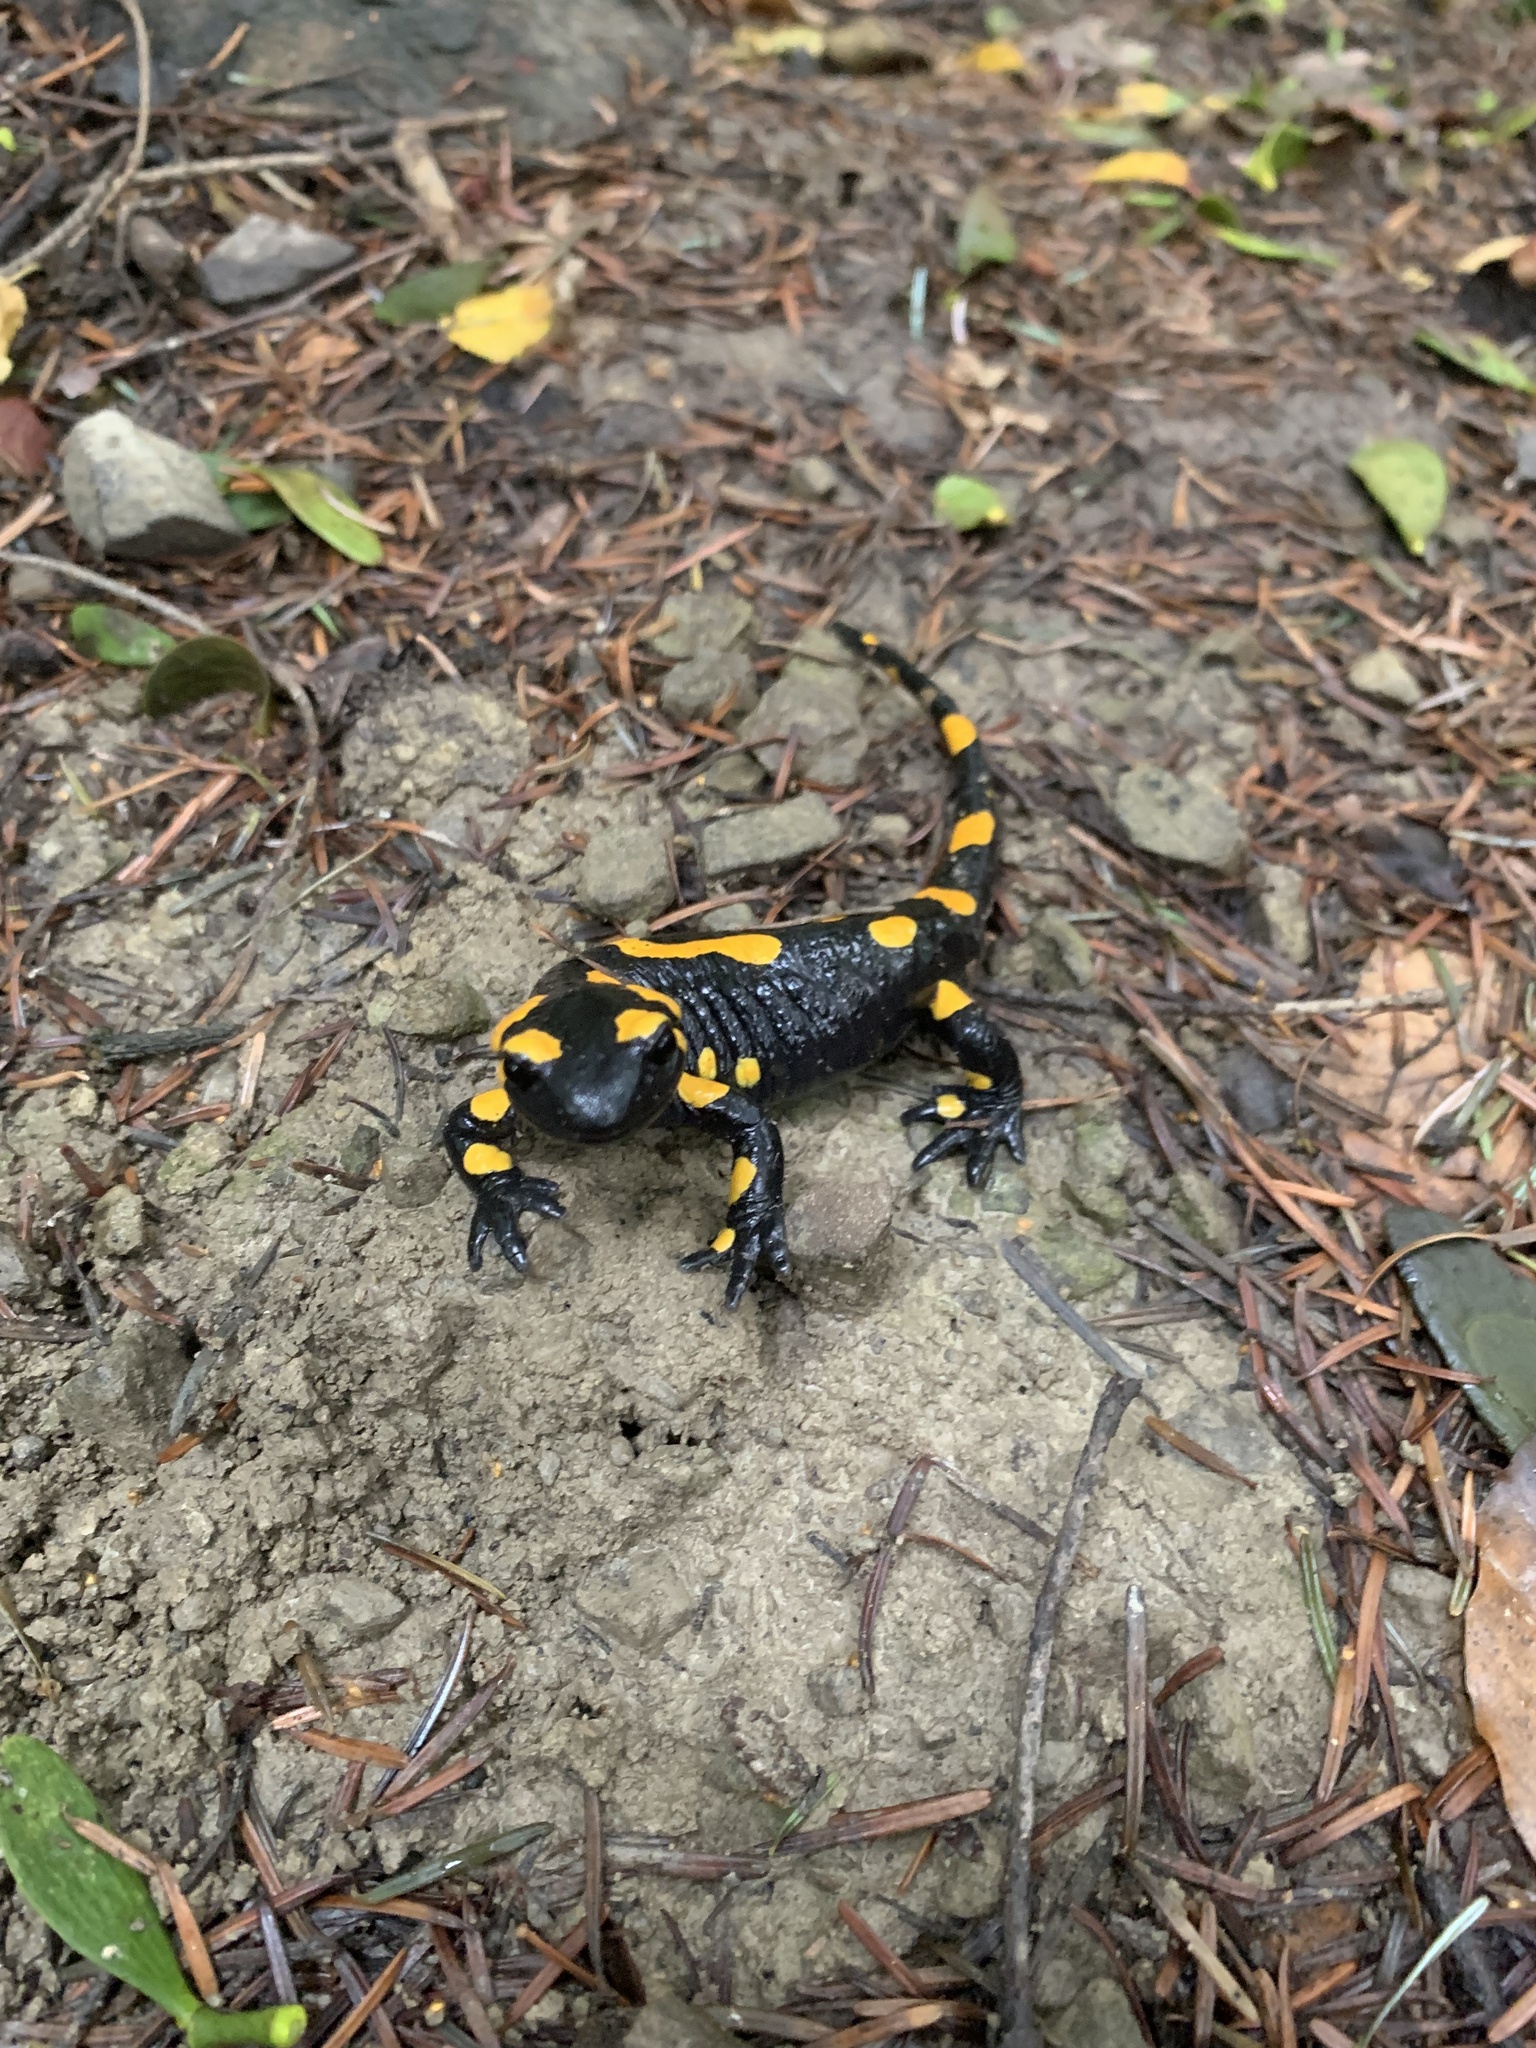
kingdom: Animalia
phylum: Chordata
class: Amphibia
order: Caudata
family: Salamandridae
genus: Salamandra
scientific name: Salamandra salamandra
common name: Fire salamander
